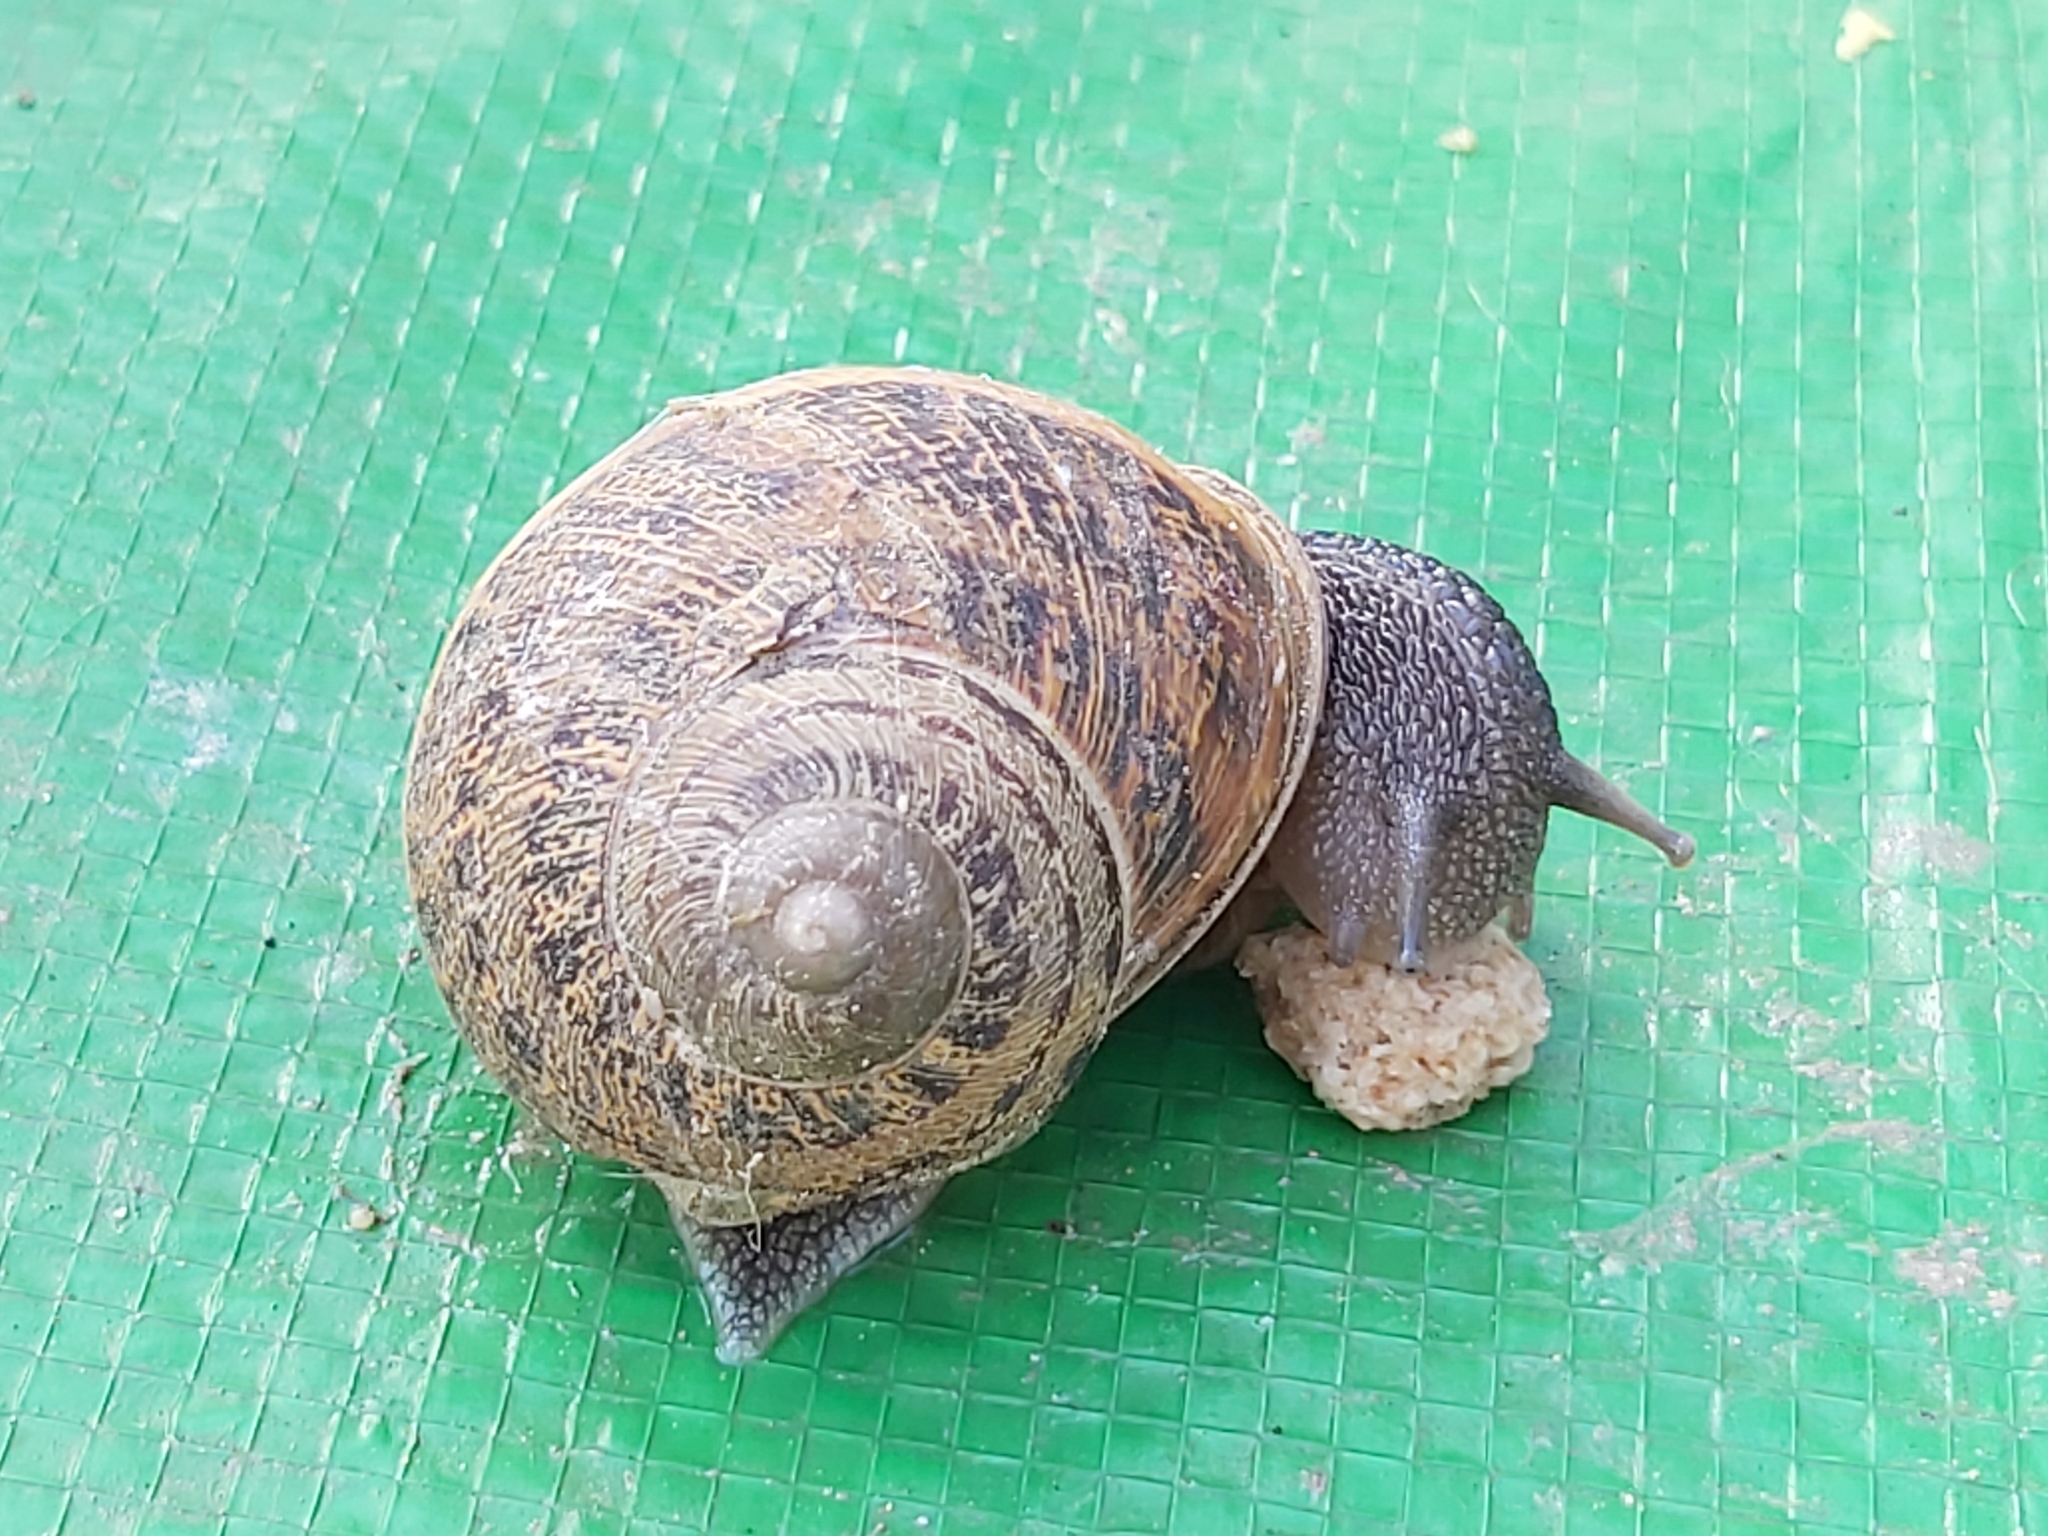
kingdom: Animalia
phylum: Mollusca
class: Gastropoda
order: Stylommatophora
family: Helicidae
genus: Cornu
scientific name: Cornu aspersum
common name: Brown garden snail
